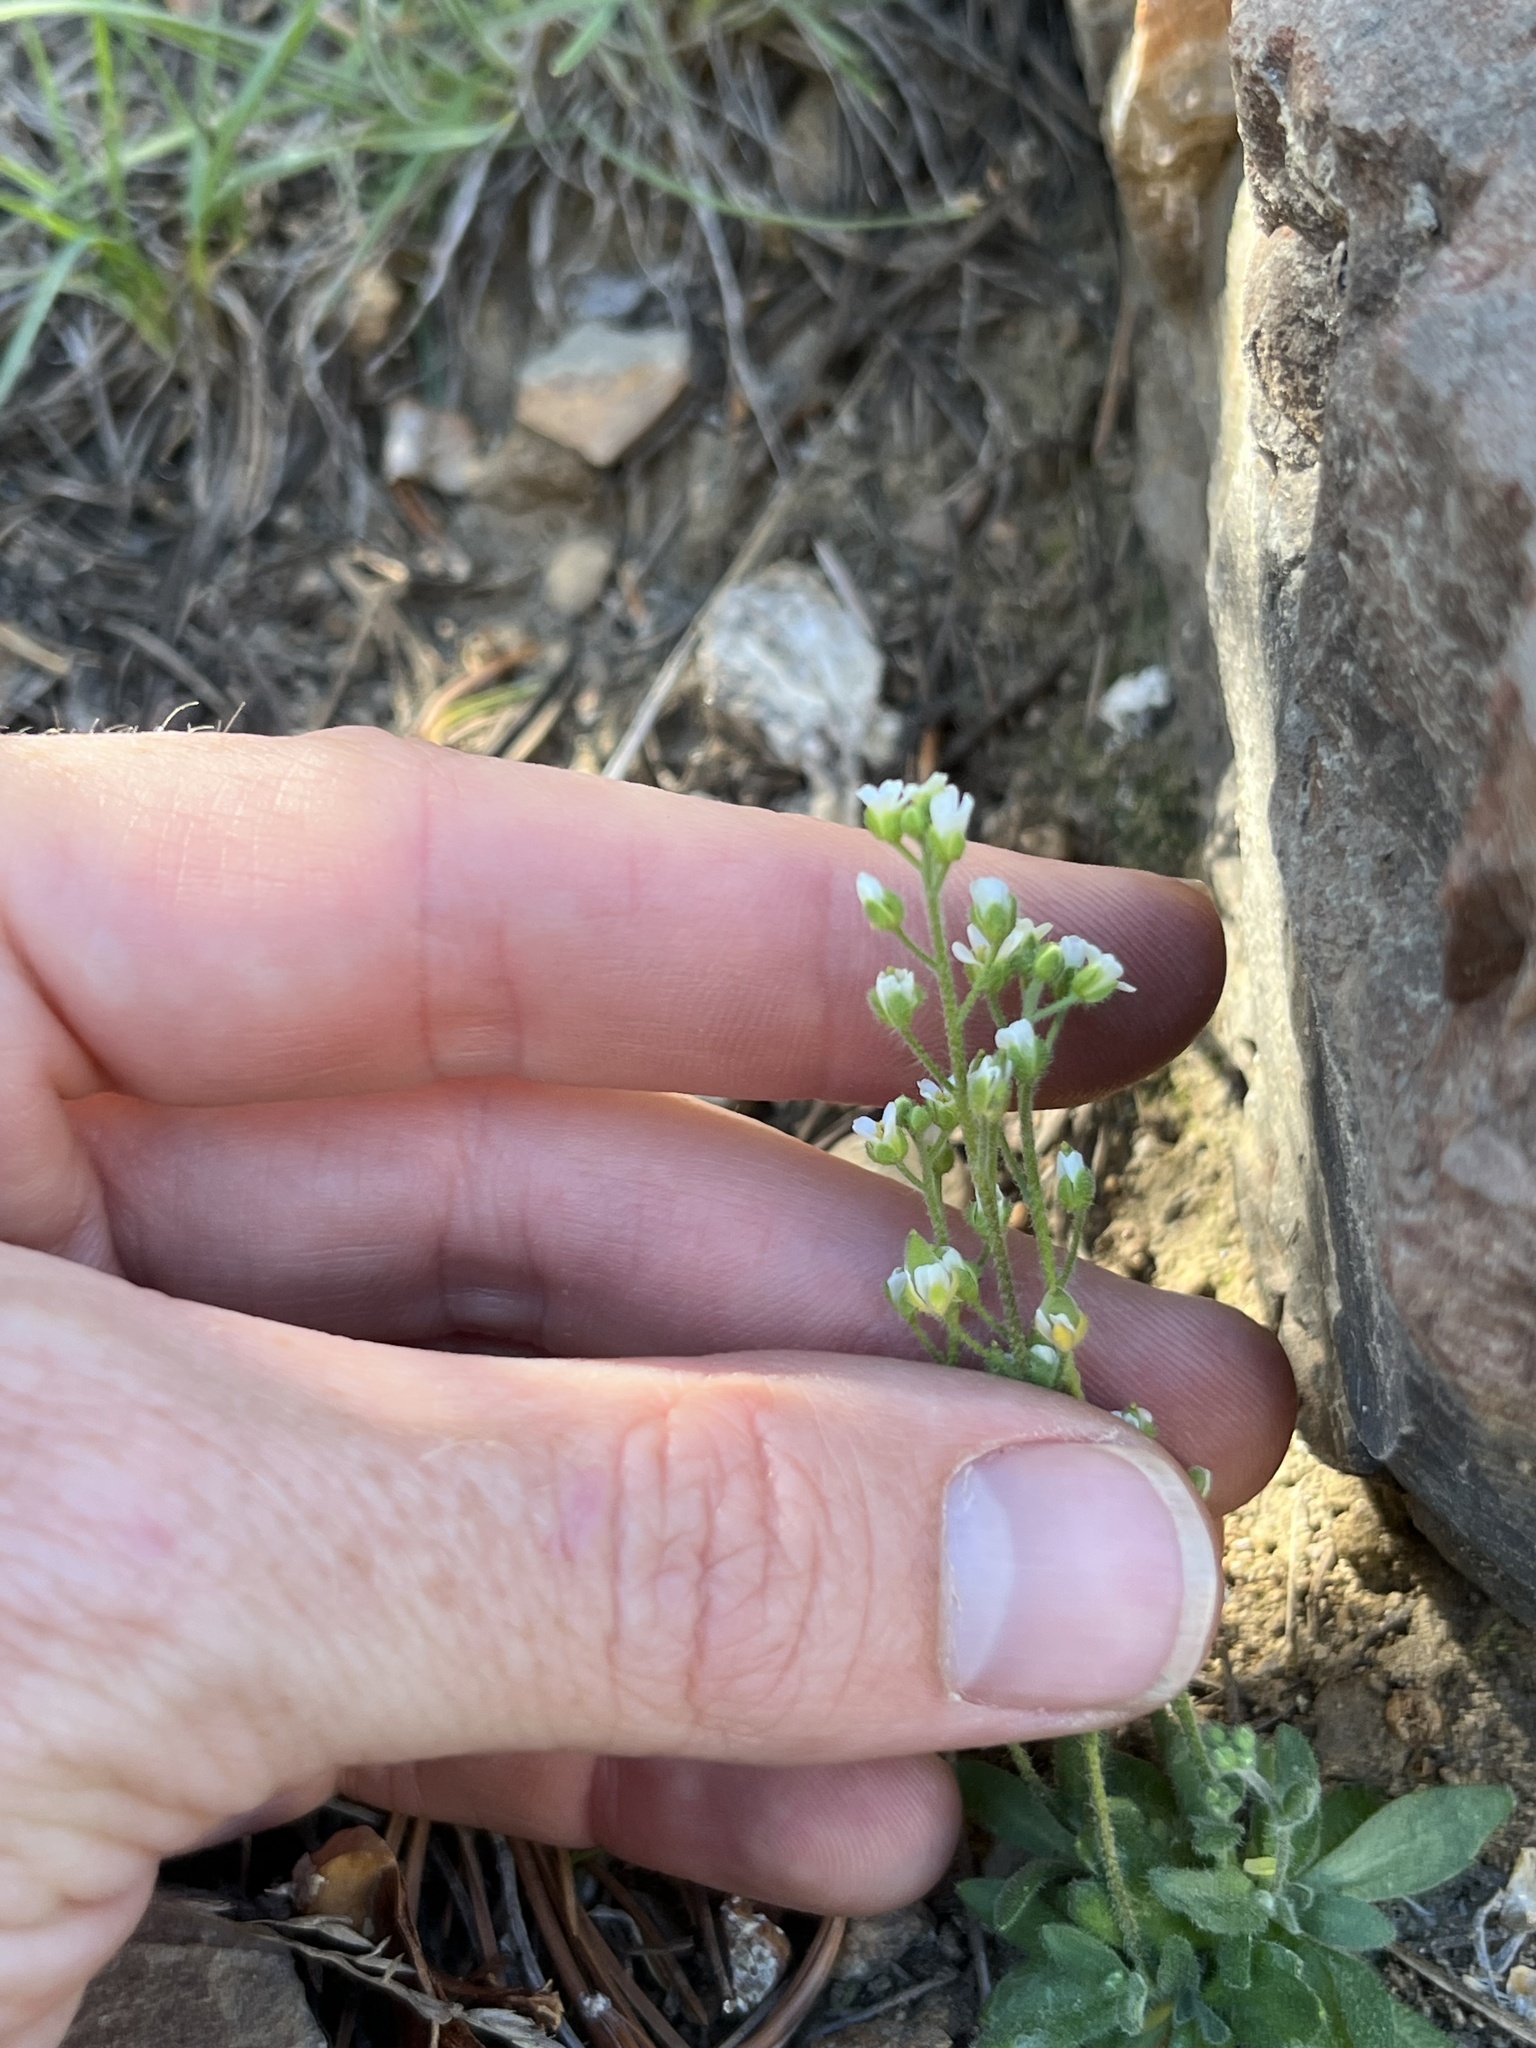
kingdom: Plantae
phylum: Tracheophyta
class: Magnoliopsida
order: Brassicales
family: Brassicaceae
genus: Draba
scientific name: Draba californica
